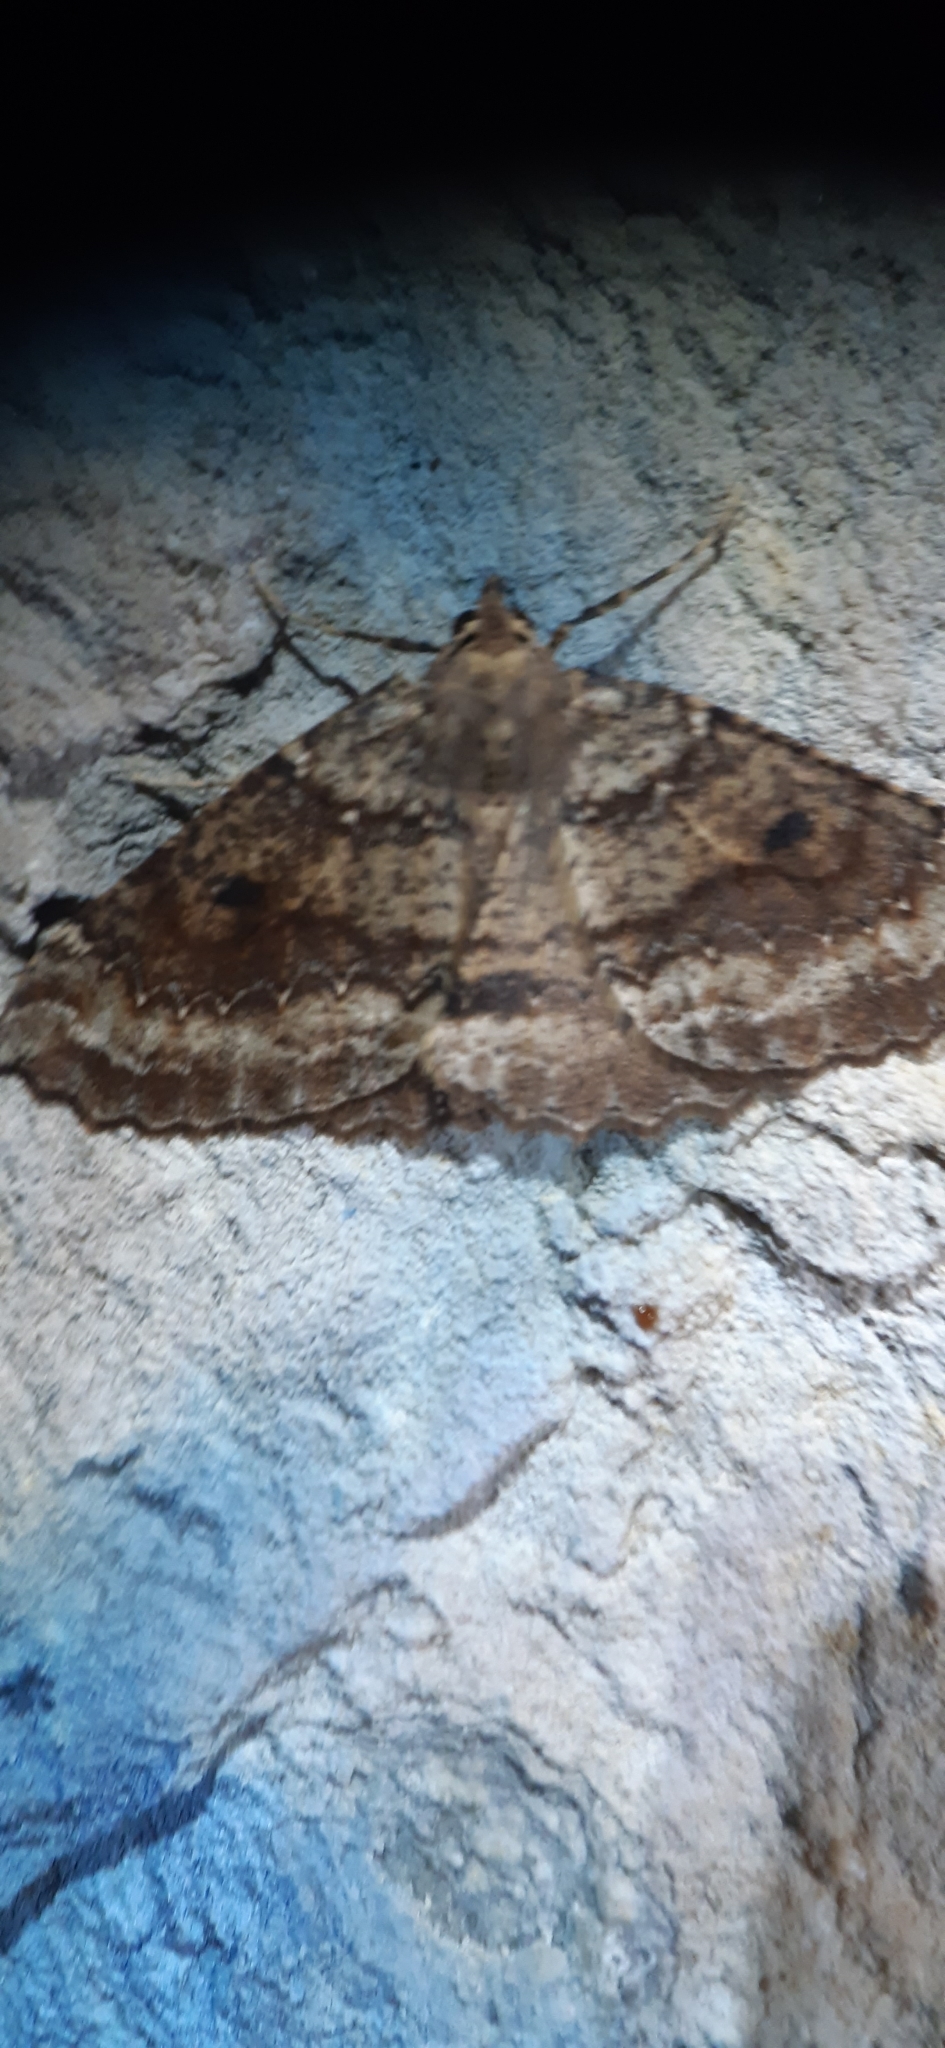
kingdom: Animalia
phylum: Arthropoda
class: Insecta
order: Lepidoptera
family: Geometridae
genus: Cleora
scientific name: Cleora scriptaria
